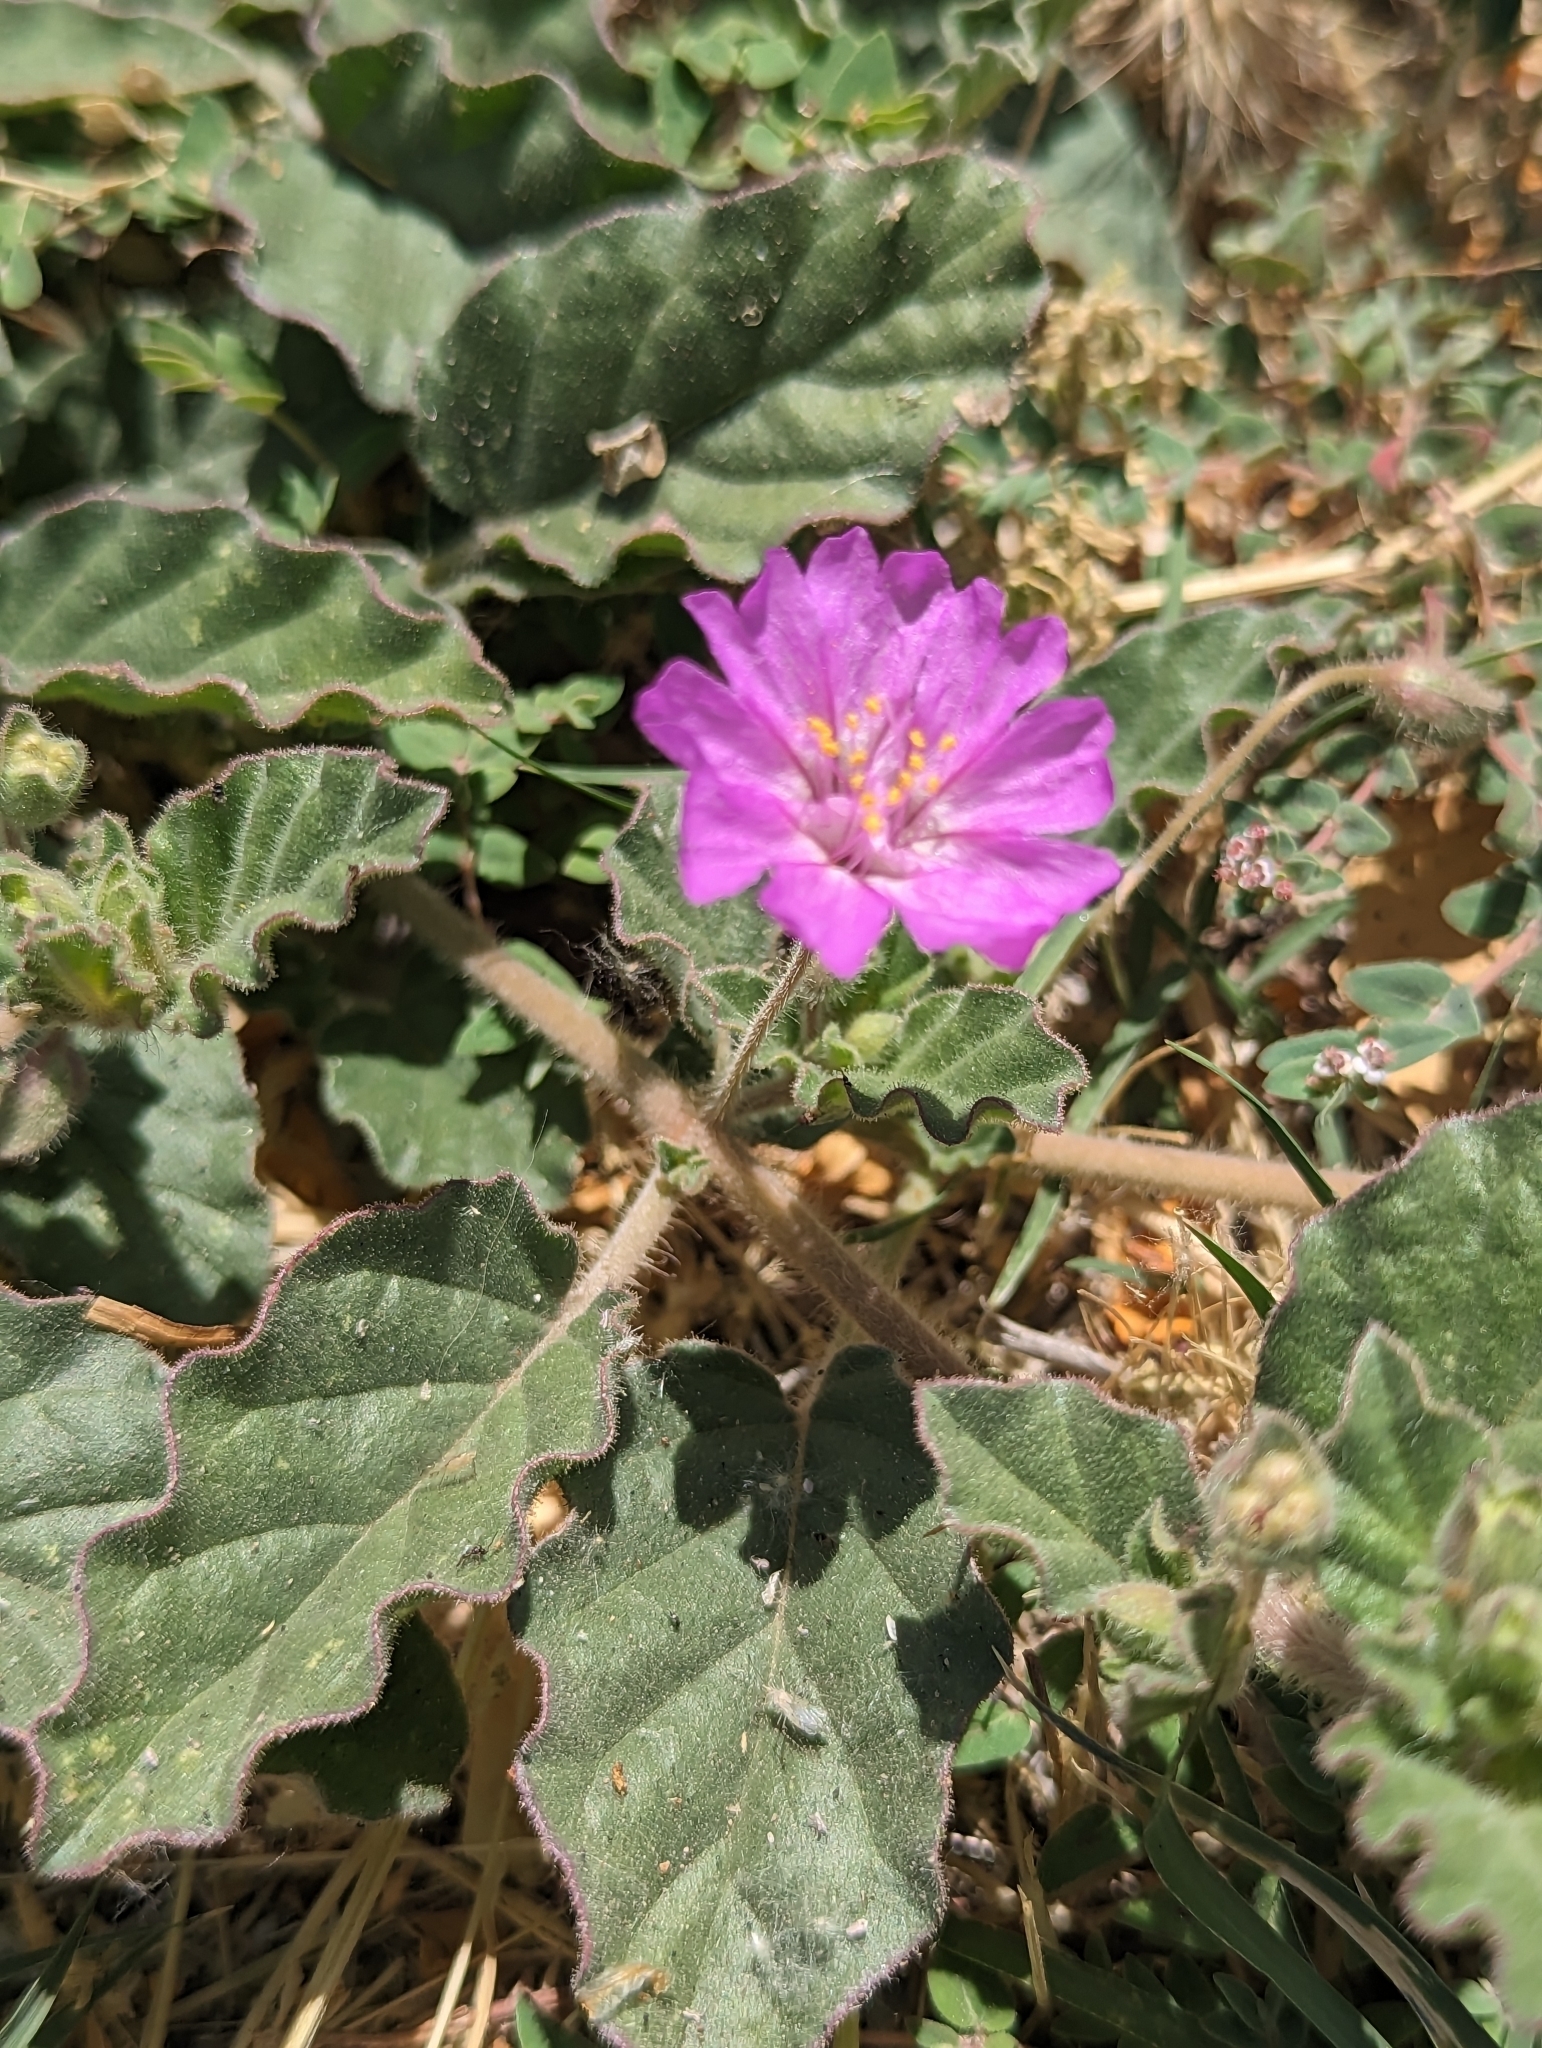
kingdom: Plantae
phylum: Tracheophyta
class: Magnoliopsida
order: Caryophyllales
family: Nyctaginaceae
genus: Allionia
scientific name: Allionia incarnata
